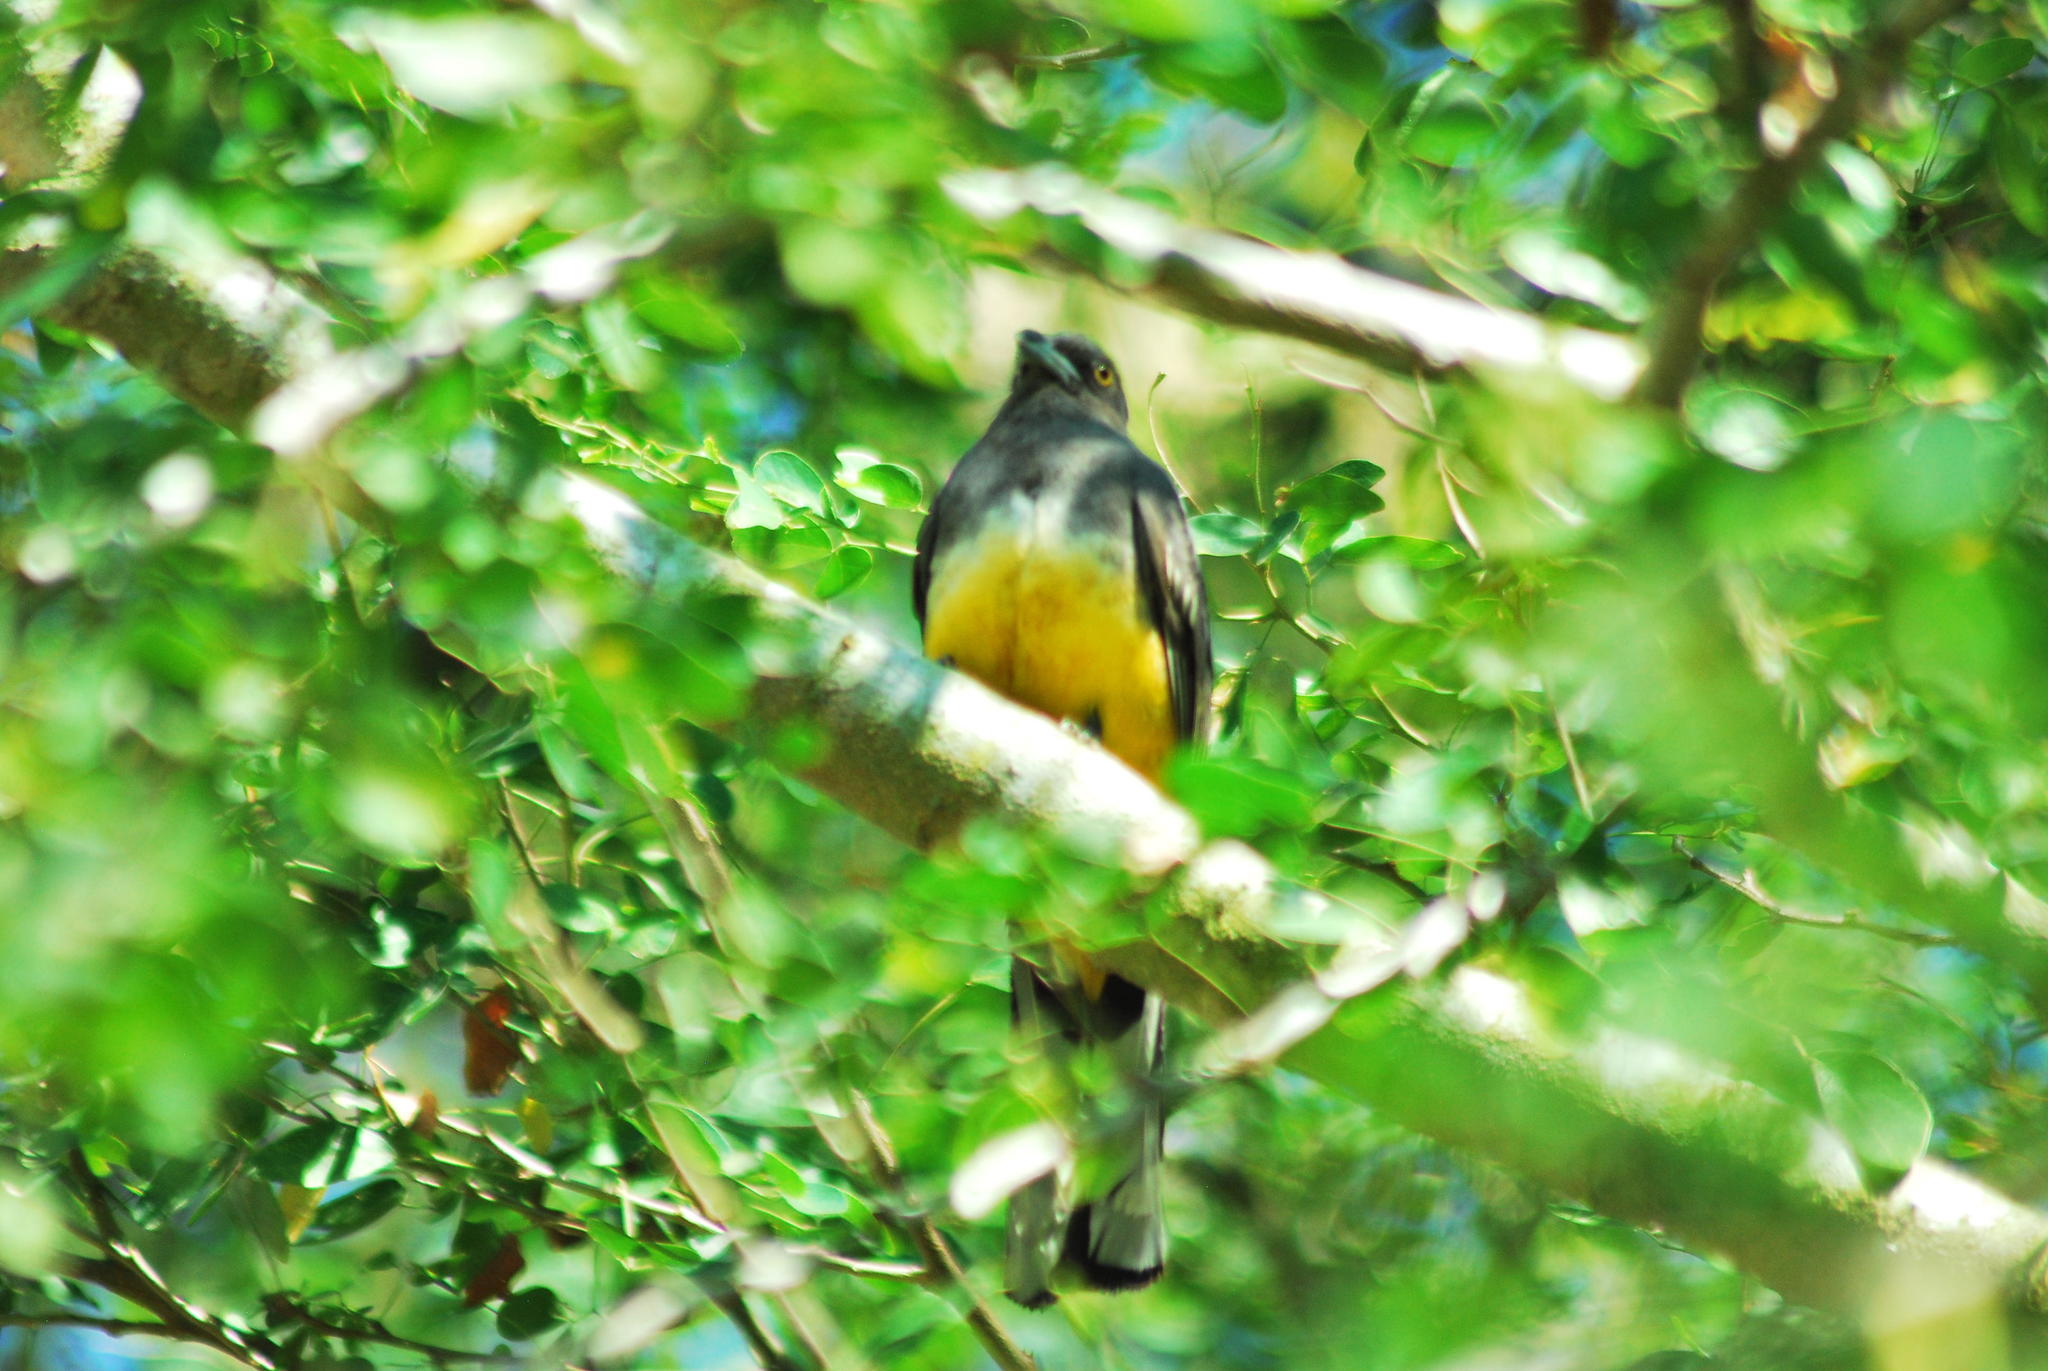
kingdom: Animalia
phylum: Chordata
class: Aves
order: Trogoniformes
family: Trogonidae
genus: Trogon
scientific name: Trogon citreolus
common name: Citreoline trogon
